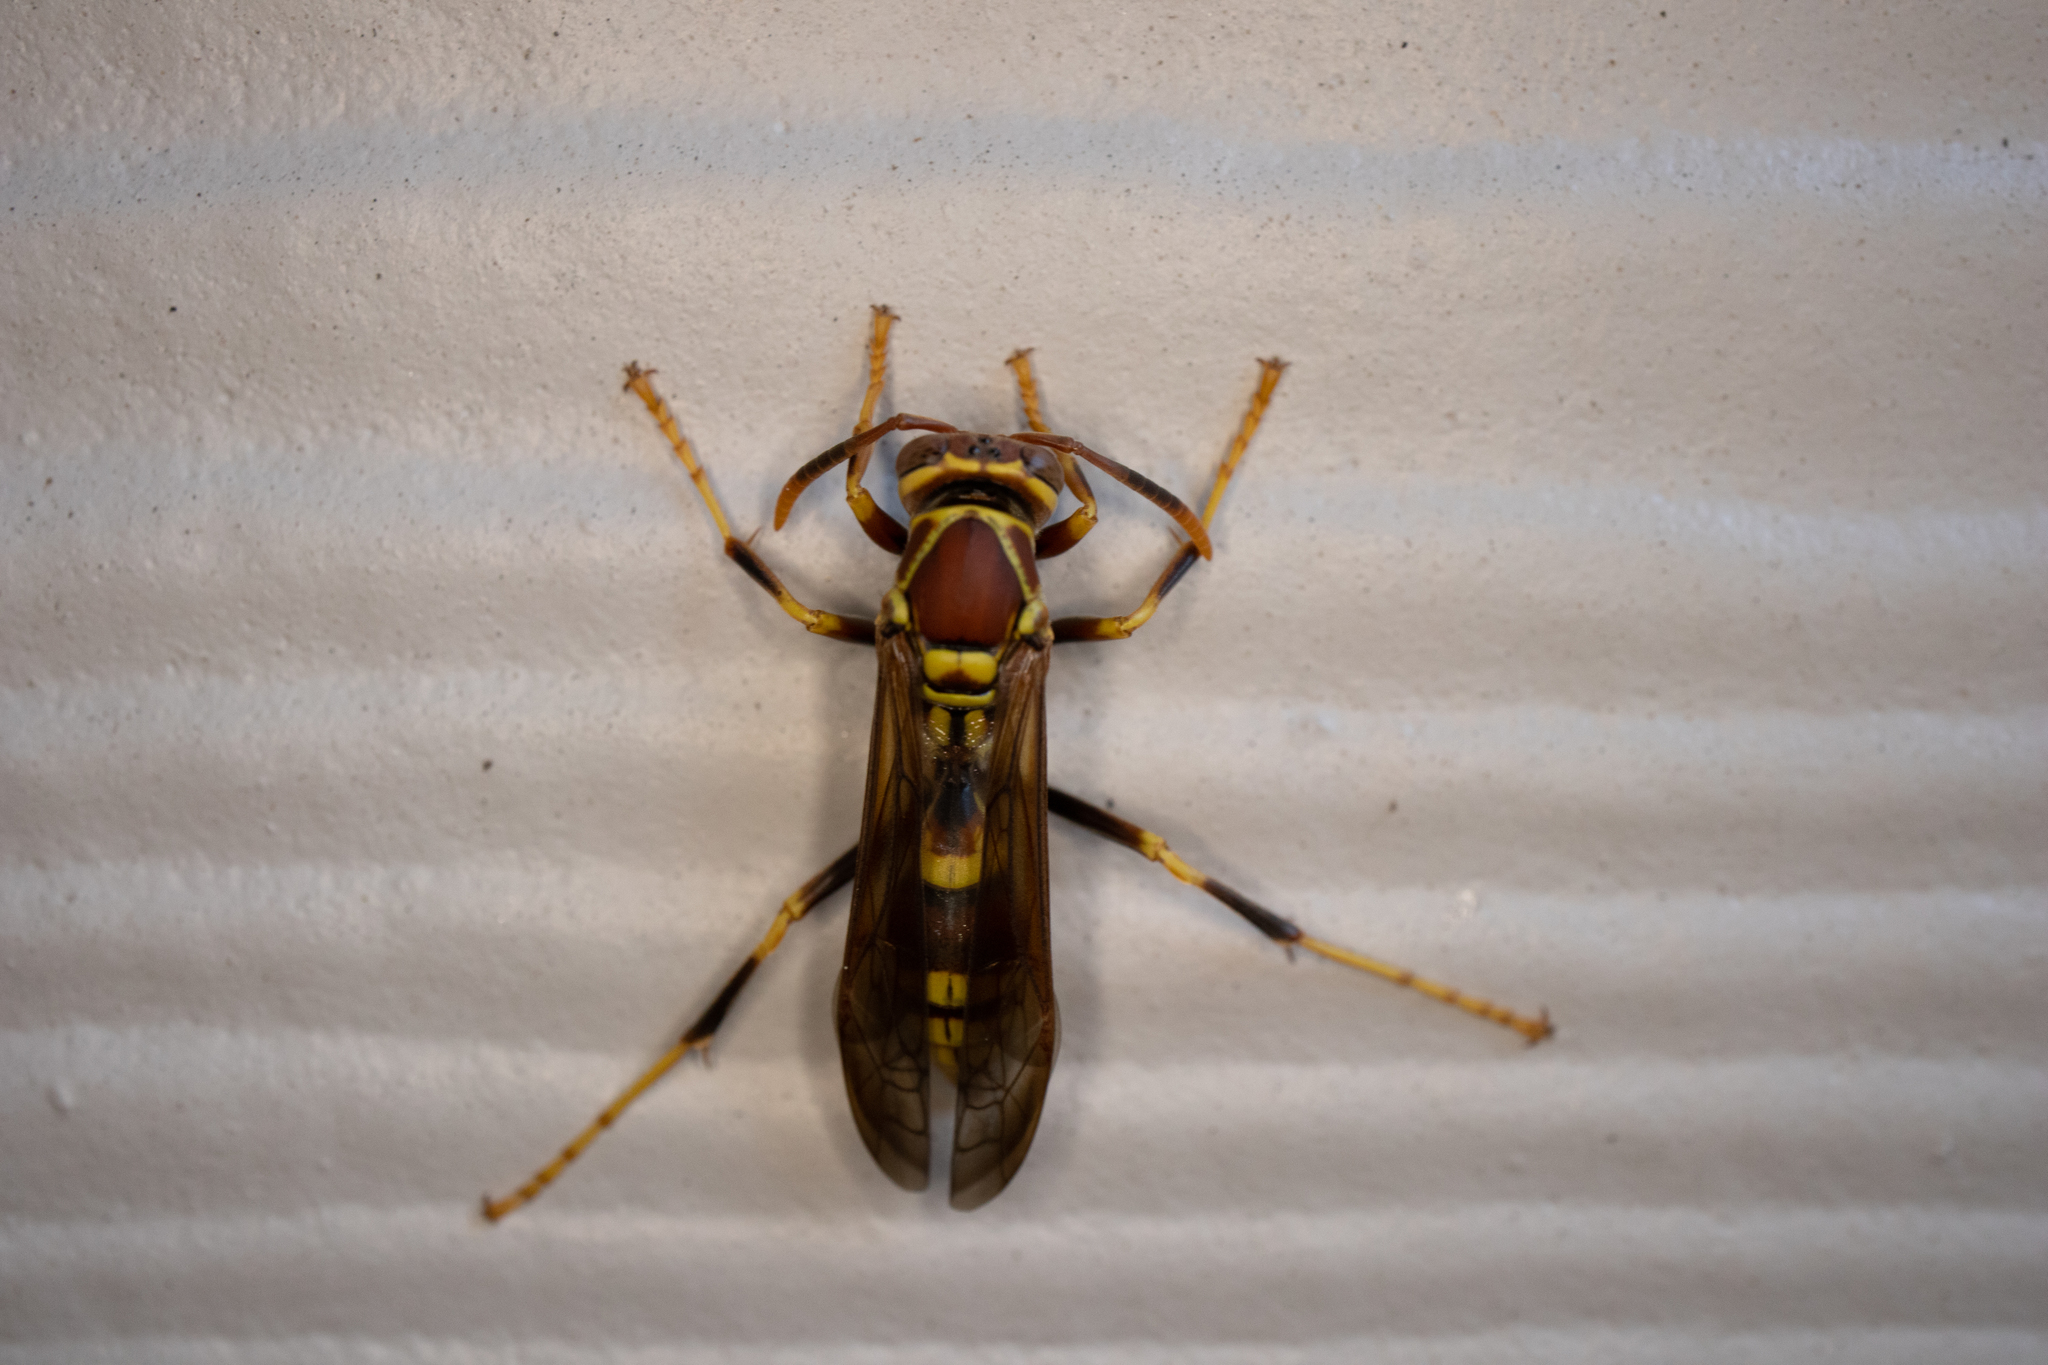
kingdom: Animalia
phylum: Arthropoda
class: Insecta
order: Hymenoptera
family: Eumenidae
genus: Polistes
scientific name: Polistes exclamans
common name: Paper wasp
